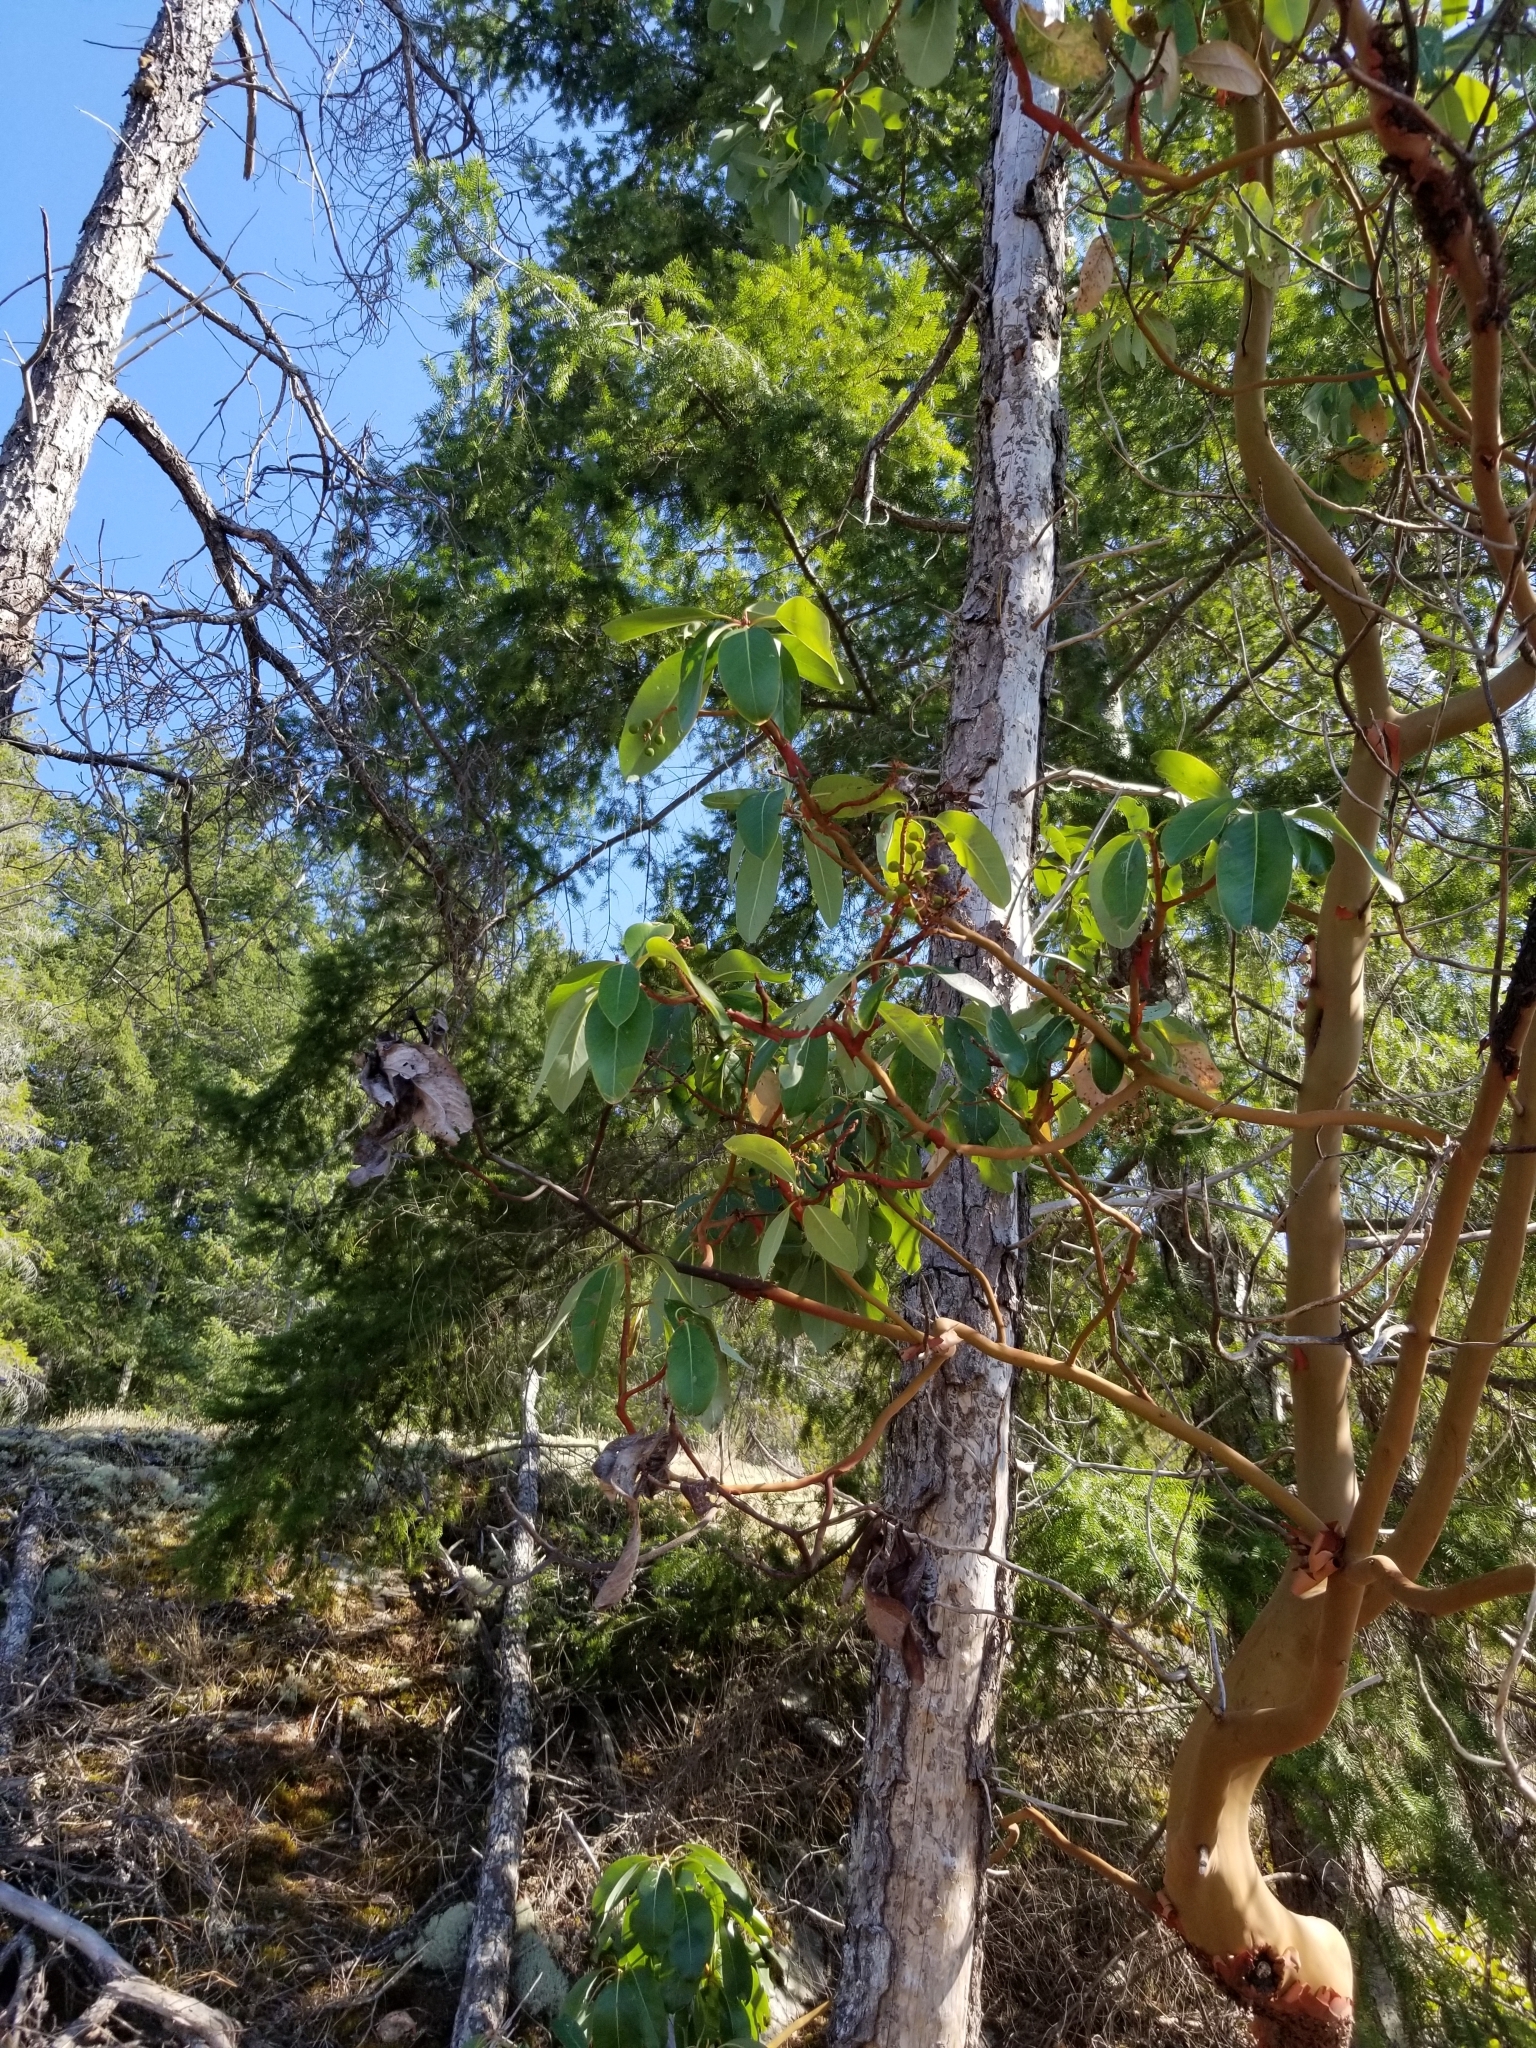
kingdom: Plantae
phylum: Tracheophyta
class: Magnoliopsida
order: Ericales
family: Ericaceae
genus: Arbutus
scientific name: Arbutus menziesii
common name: Pacific madrone
